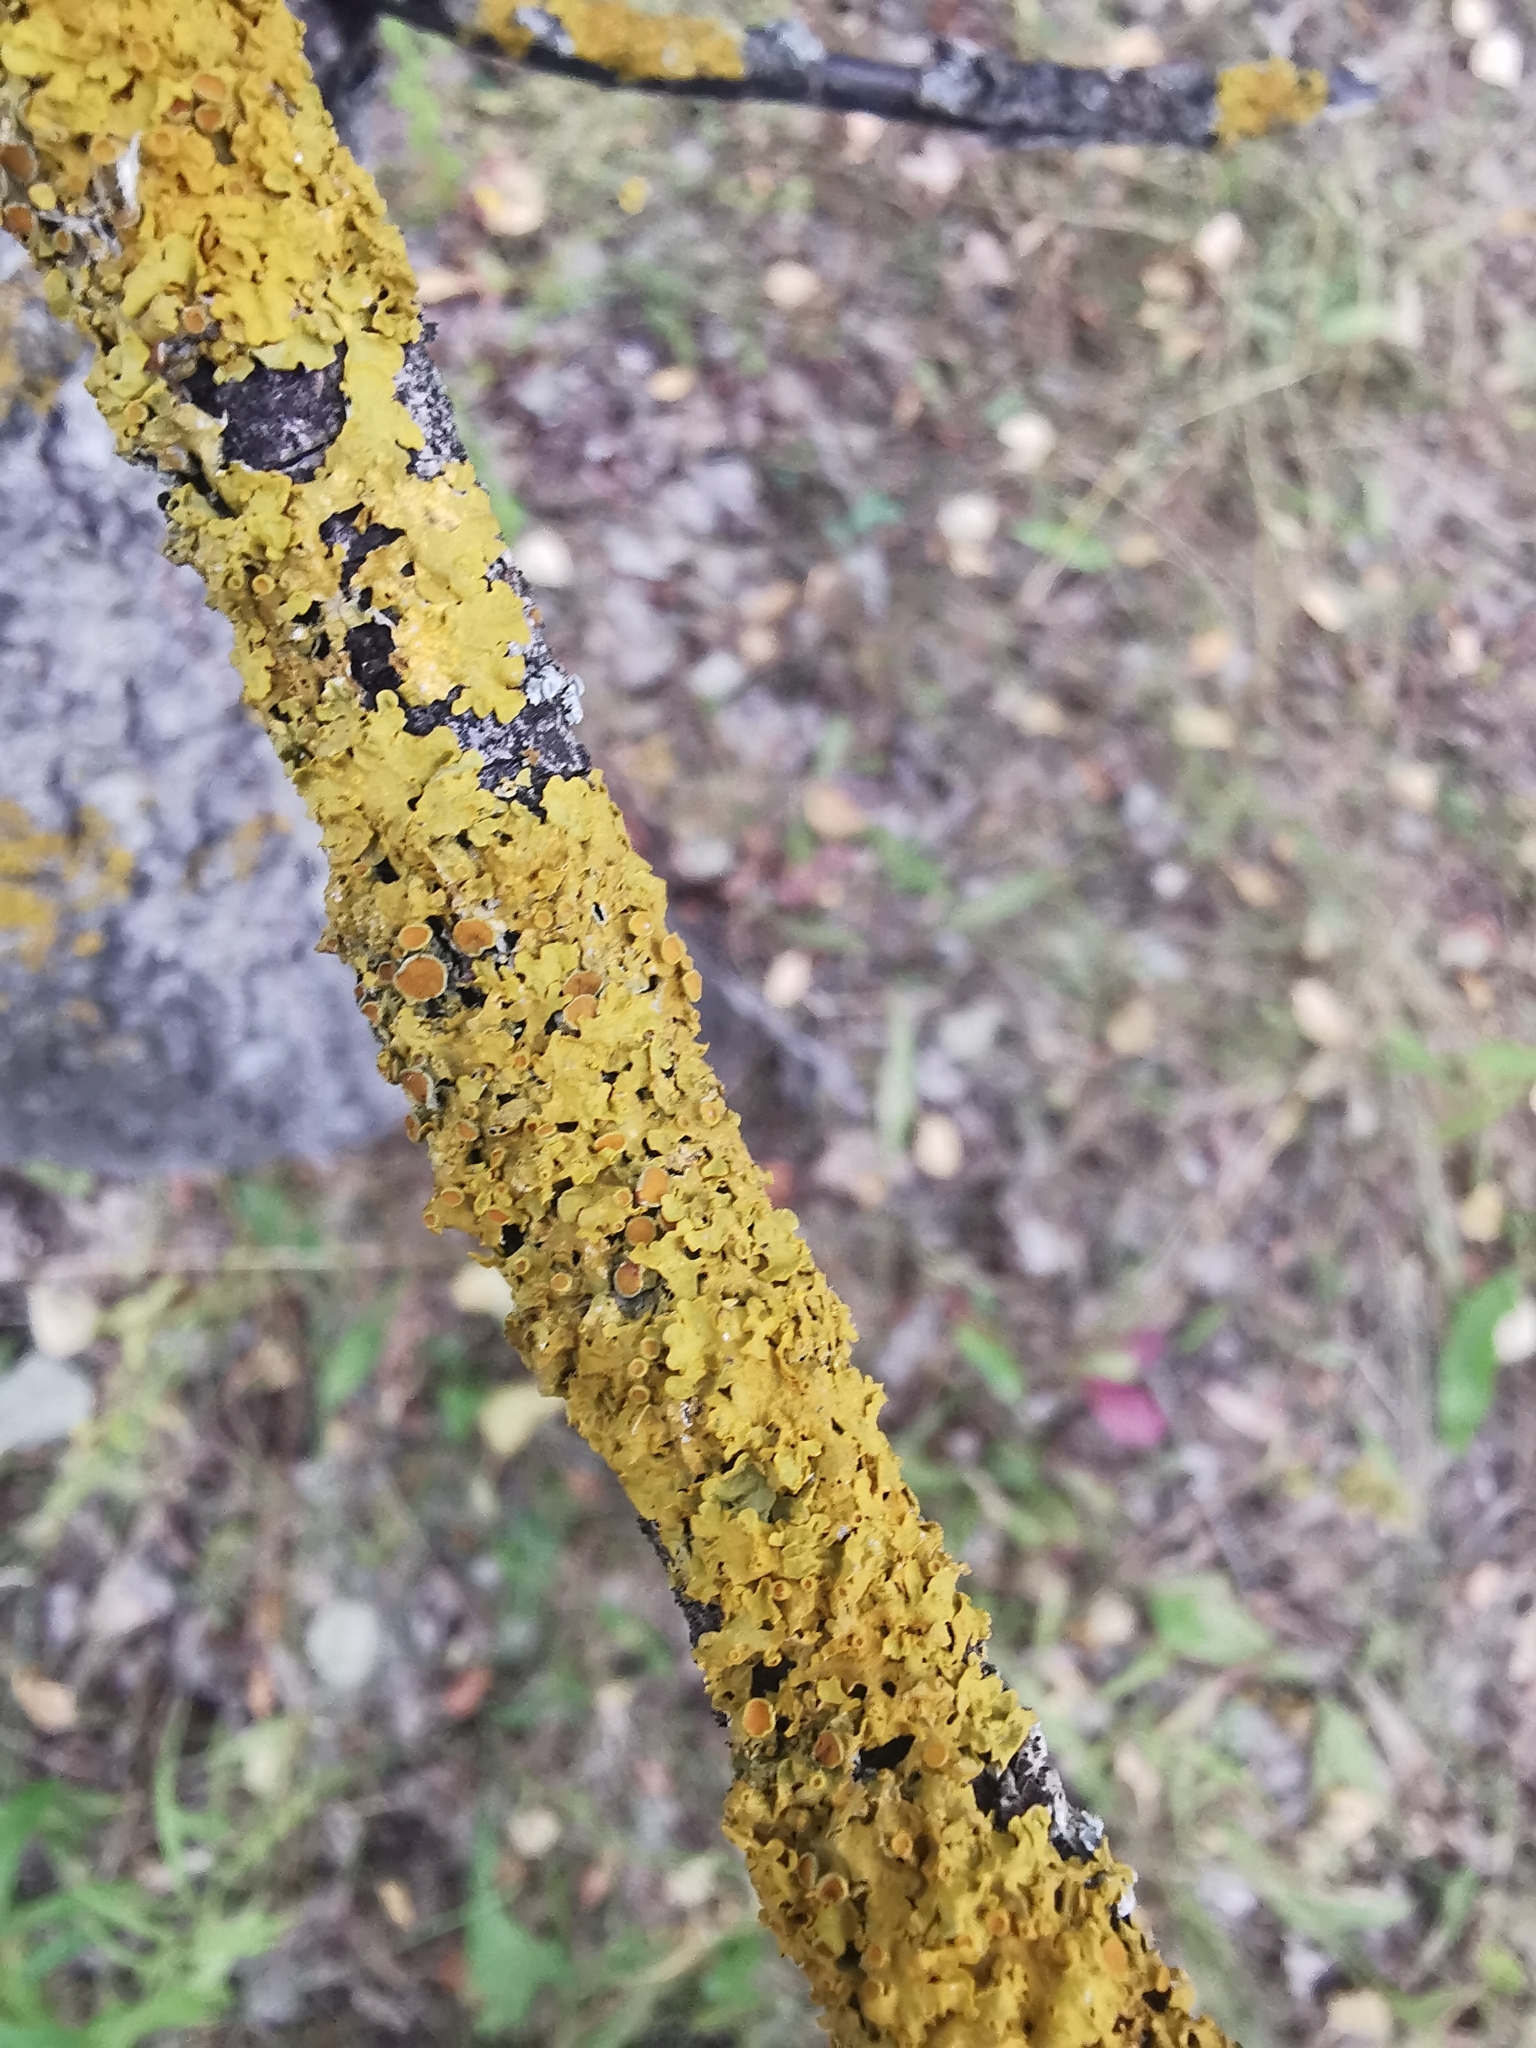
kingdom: Fungi
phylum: Ascomycota
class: Lecanoromycetes
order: Teloschistales
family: Teloschistaceae
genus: Xanthoria
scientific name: Xanthoria parietina
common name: Common orange lichen
